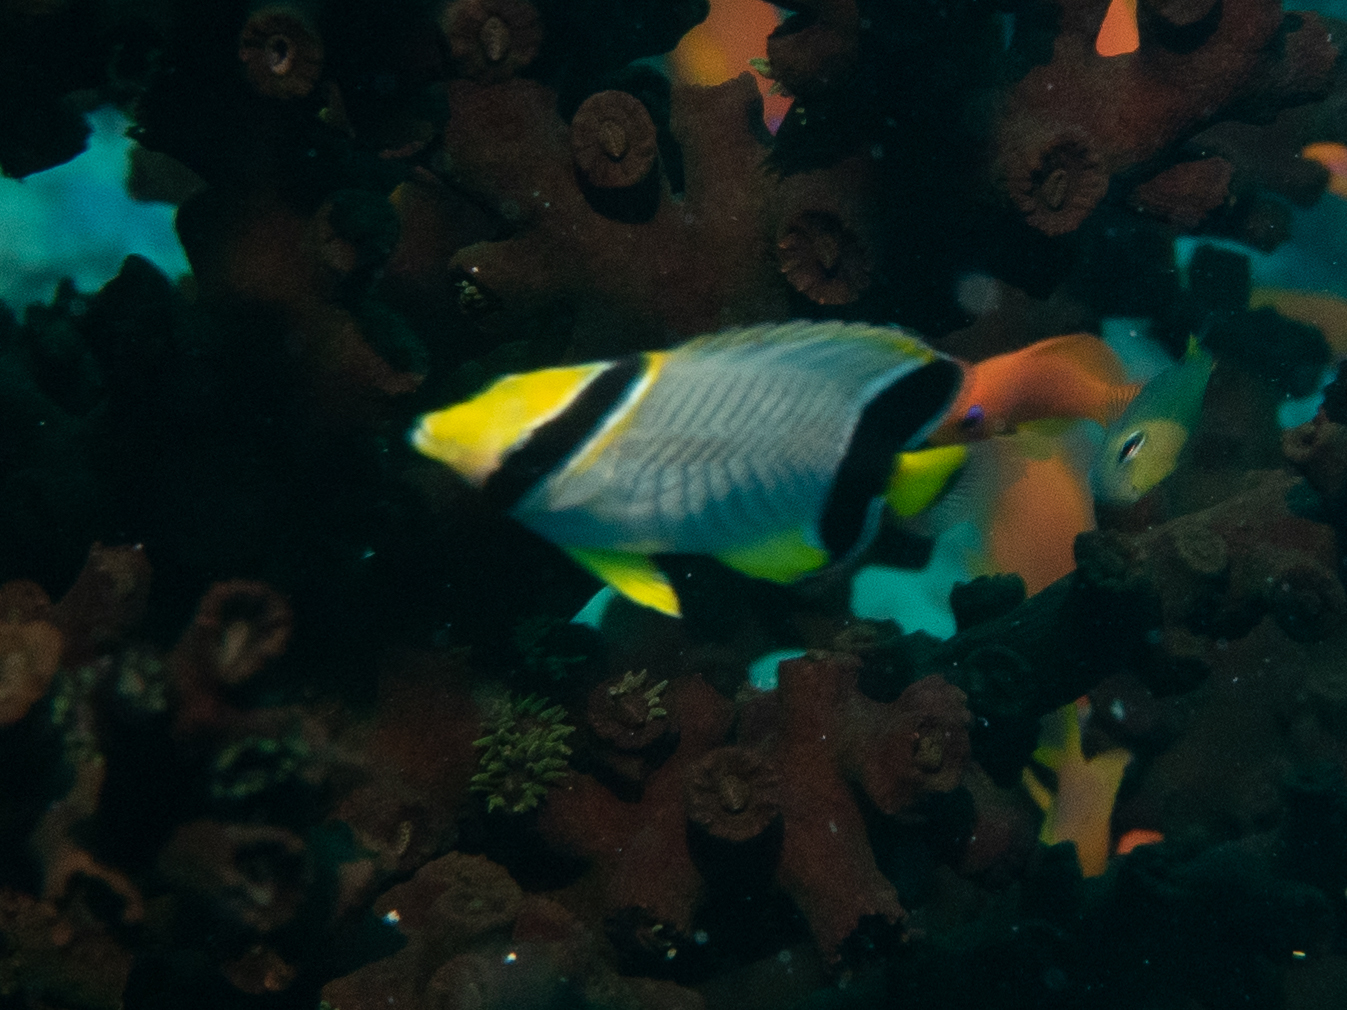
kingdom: Animalia
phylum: Chordata
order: Perciformes
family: Chaetodontidae
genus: Chaetodon
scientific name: Chaetodon trifascialis
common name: Chevroned butterflyfish
